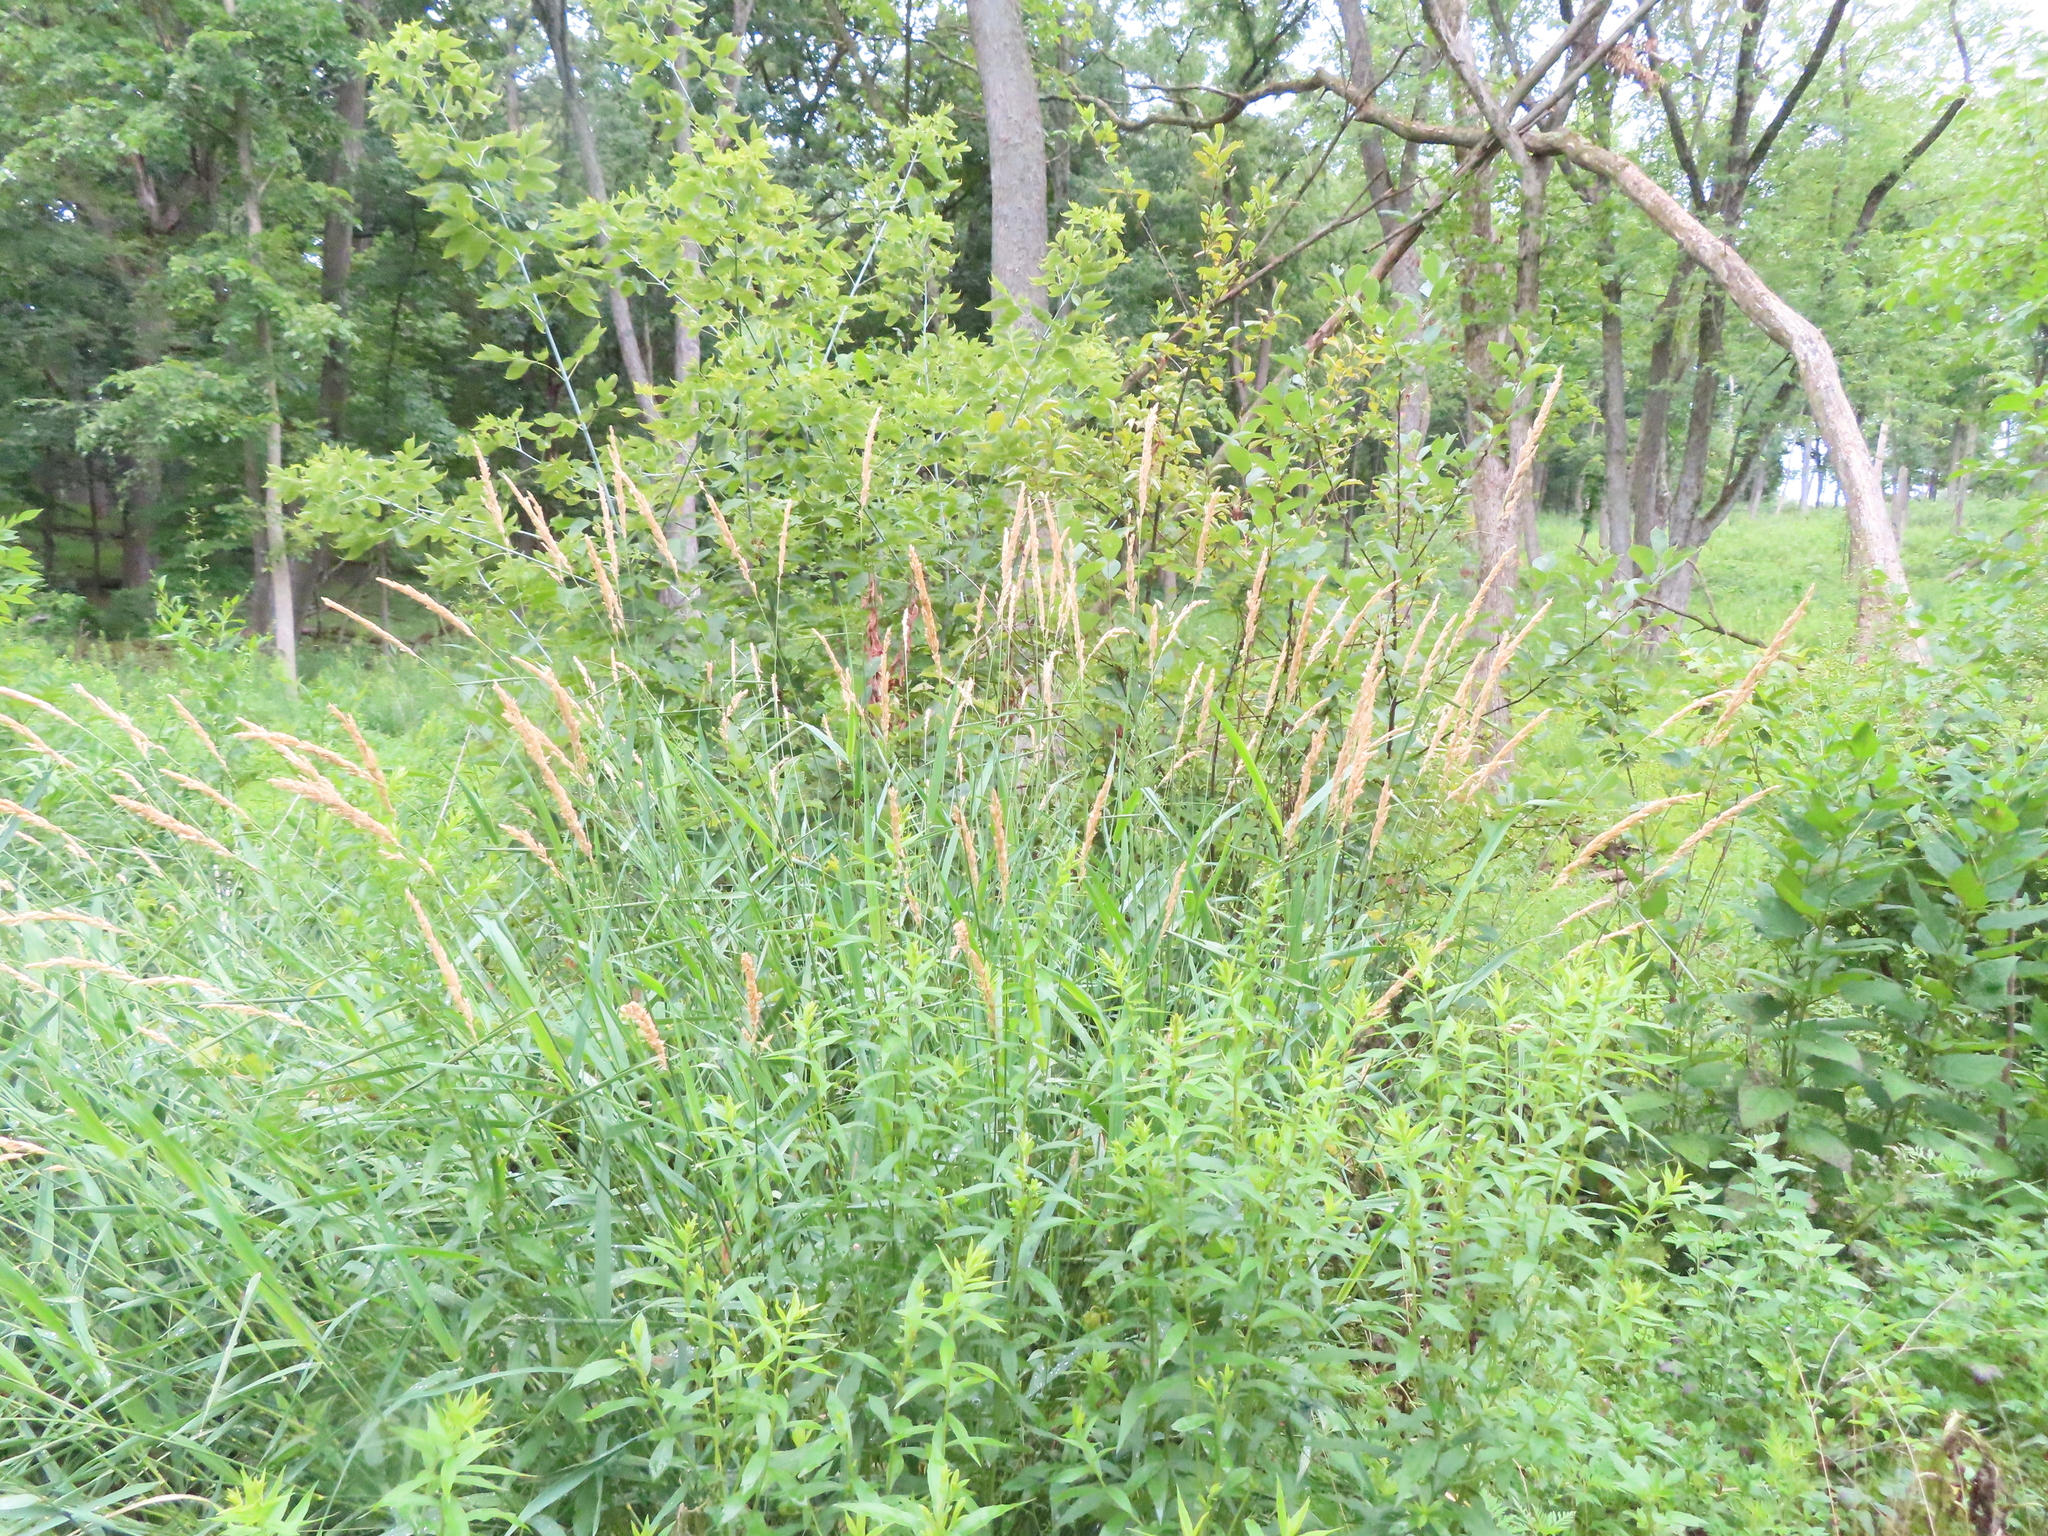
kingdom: Plantae
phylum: Tracheophyta
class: Magnoliopsida
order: Sapindales
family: Sapindaceae
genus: Acer
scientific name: Acer negundo
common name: Ashleaf maple
